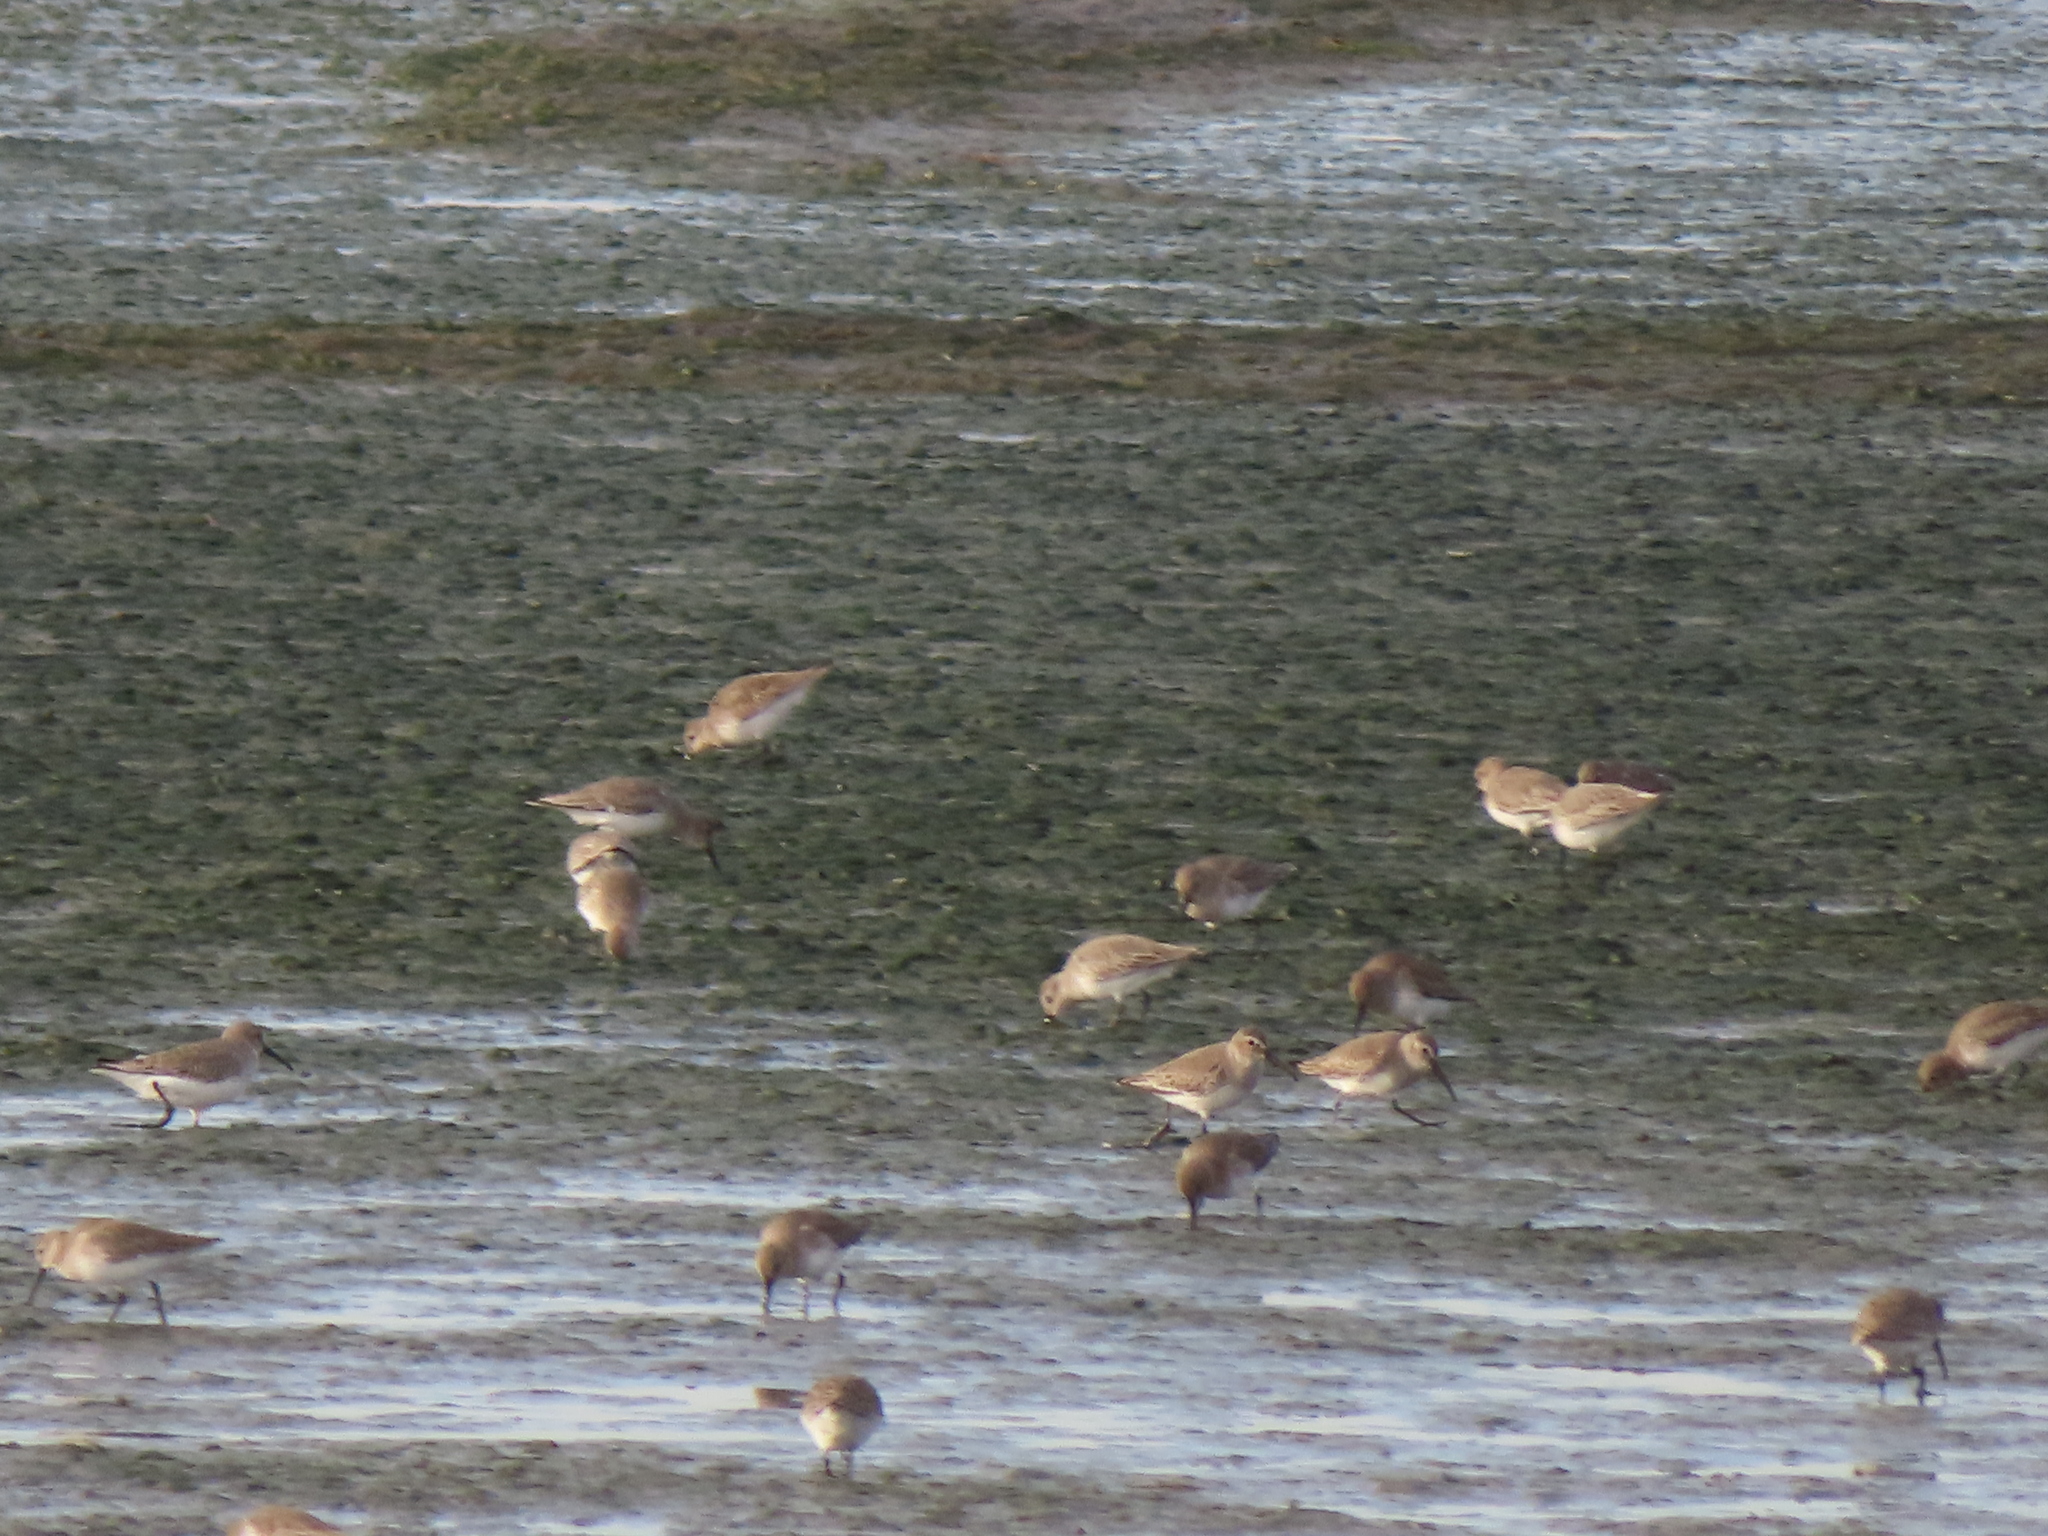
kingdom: Animalia
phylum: Chordata
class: Aves
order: Charadriiformes
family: Scolopacidae
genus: Calidris
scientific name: Calidris alpina
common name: Dunlin
